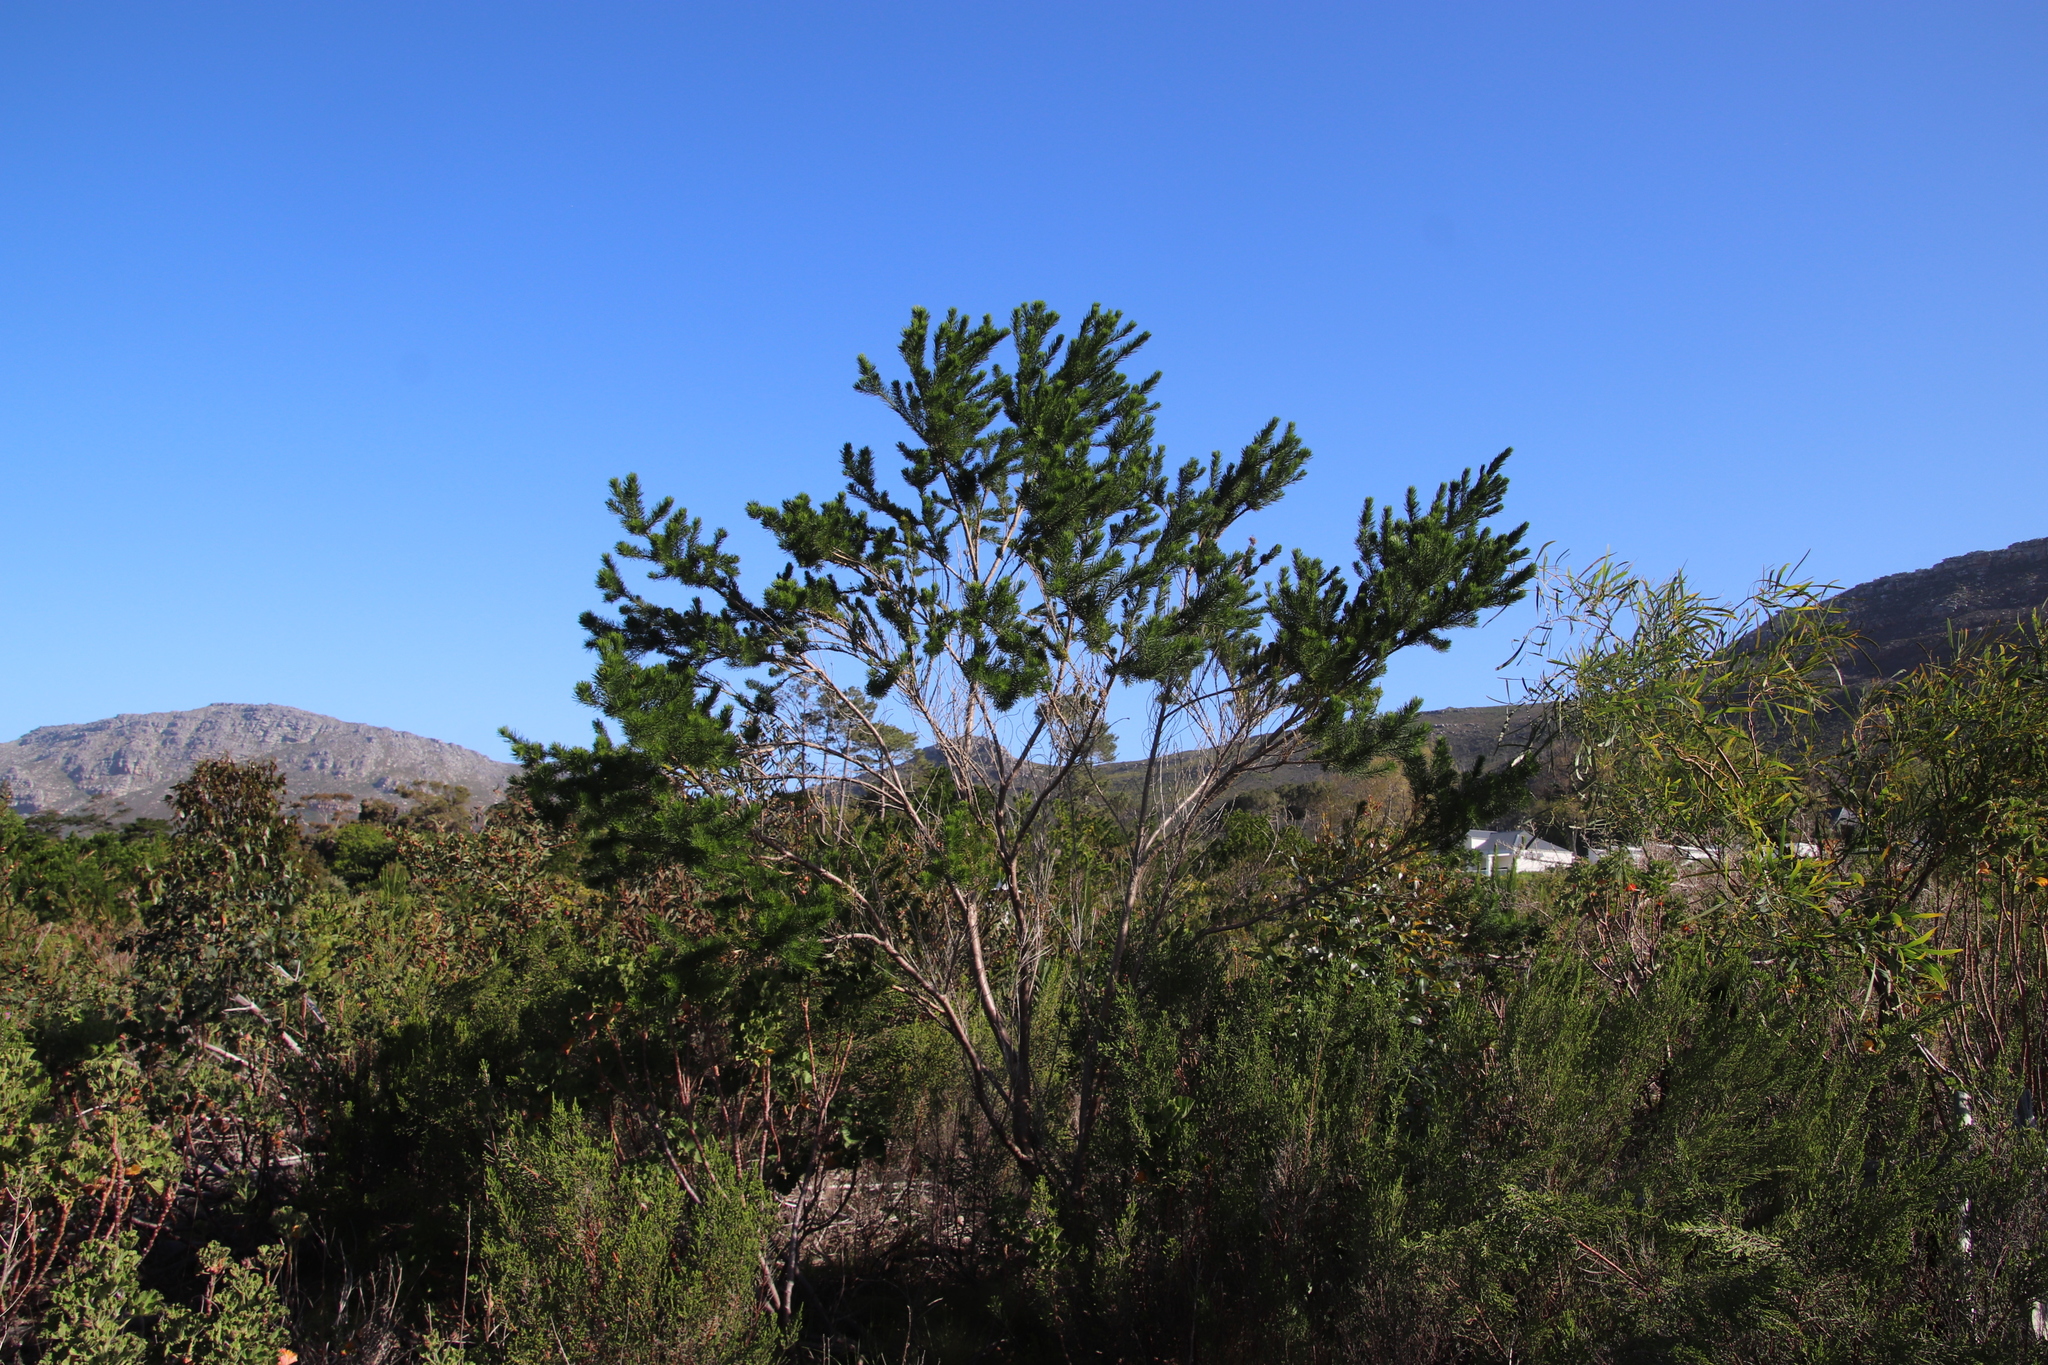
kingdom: Plantae
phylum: Tracheophyta
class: Magnoliopsida
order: Fabales
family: Fabaceae
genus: Psoralea
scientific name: Psoralea pinnata
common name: African scurfpea
